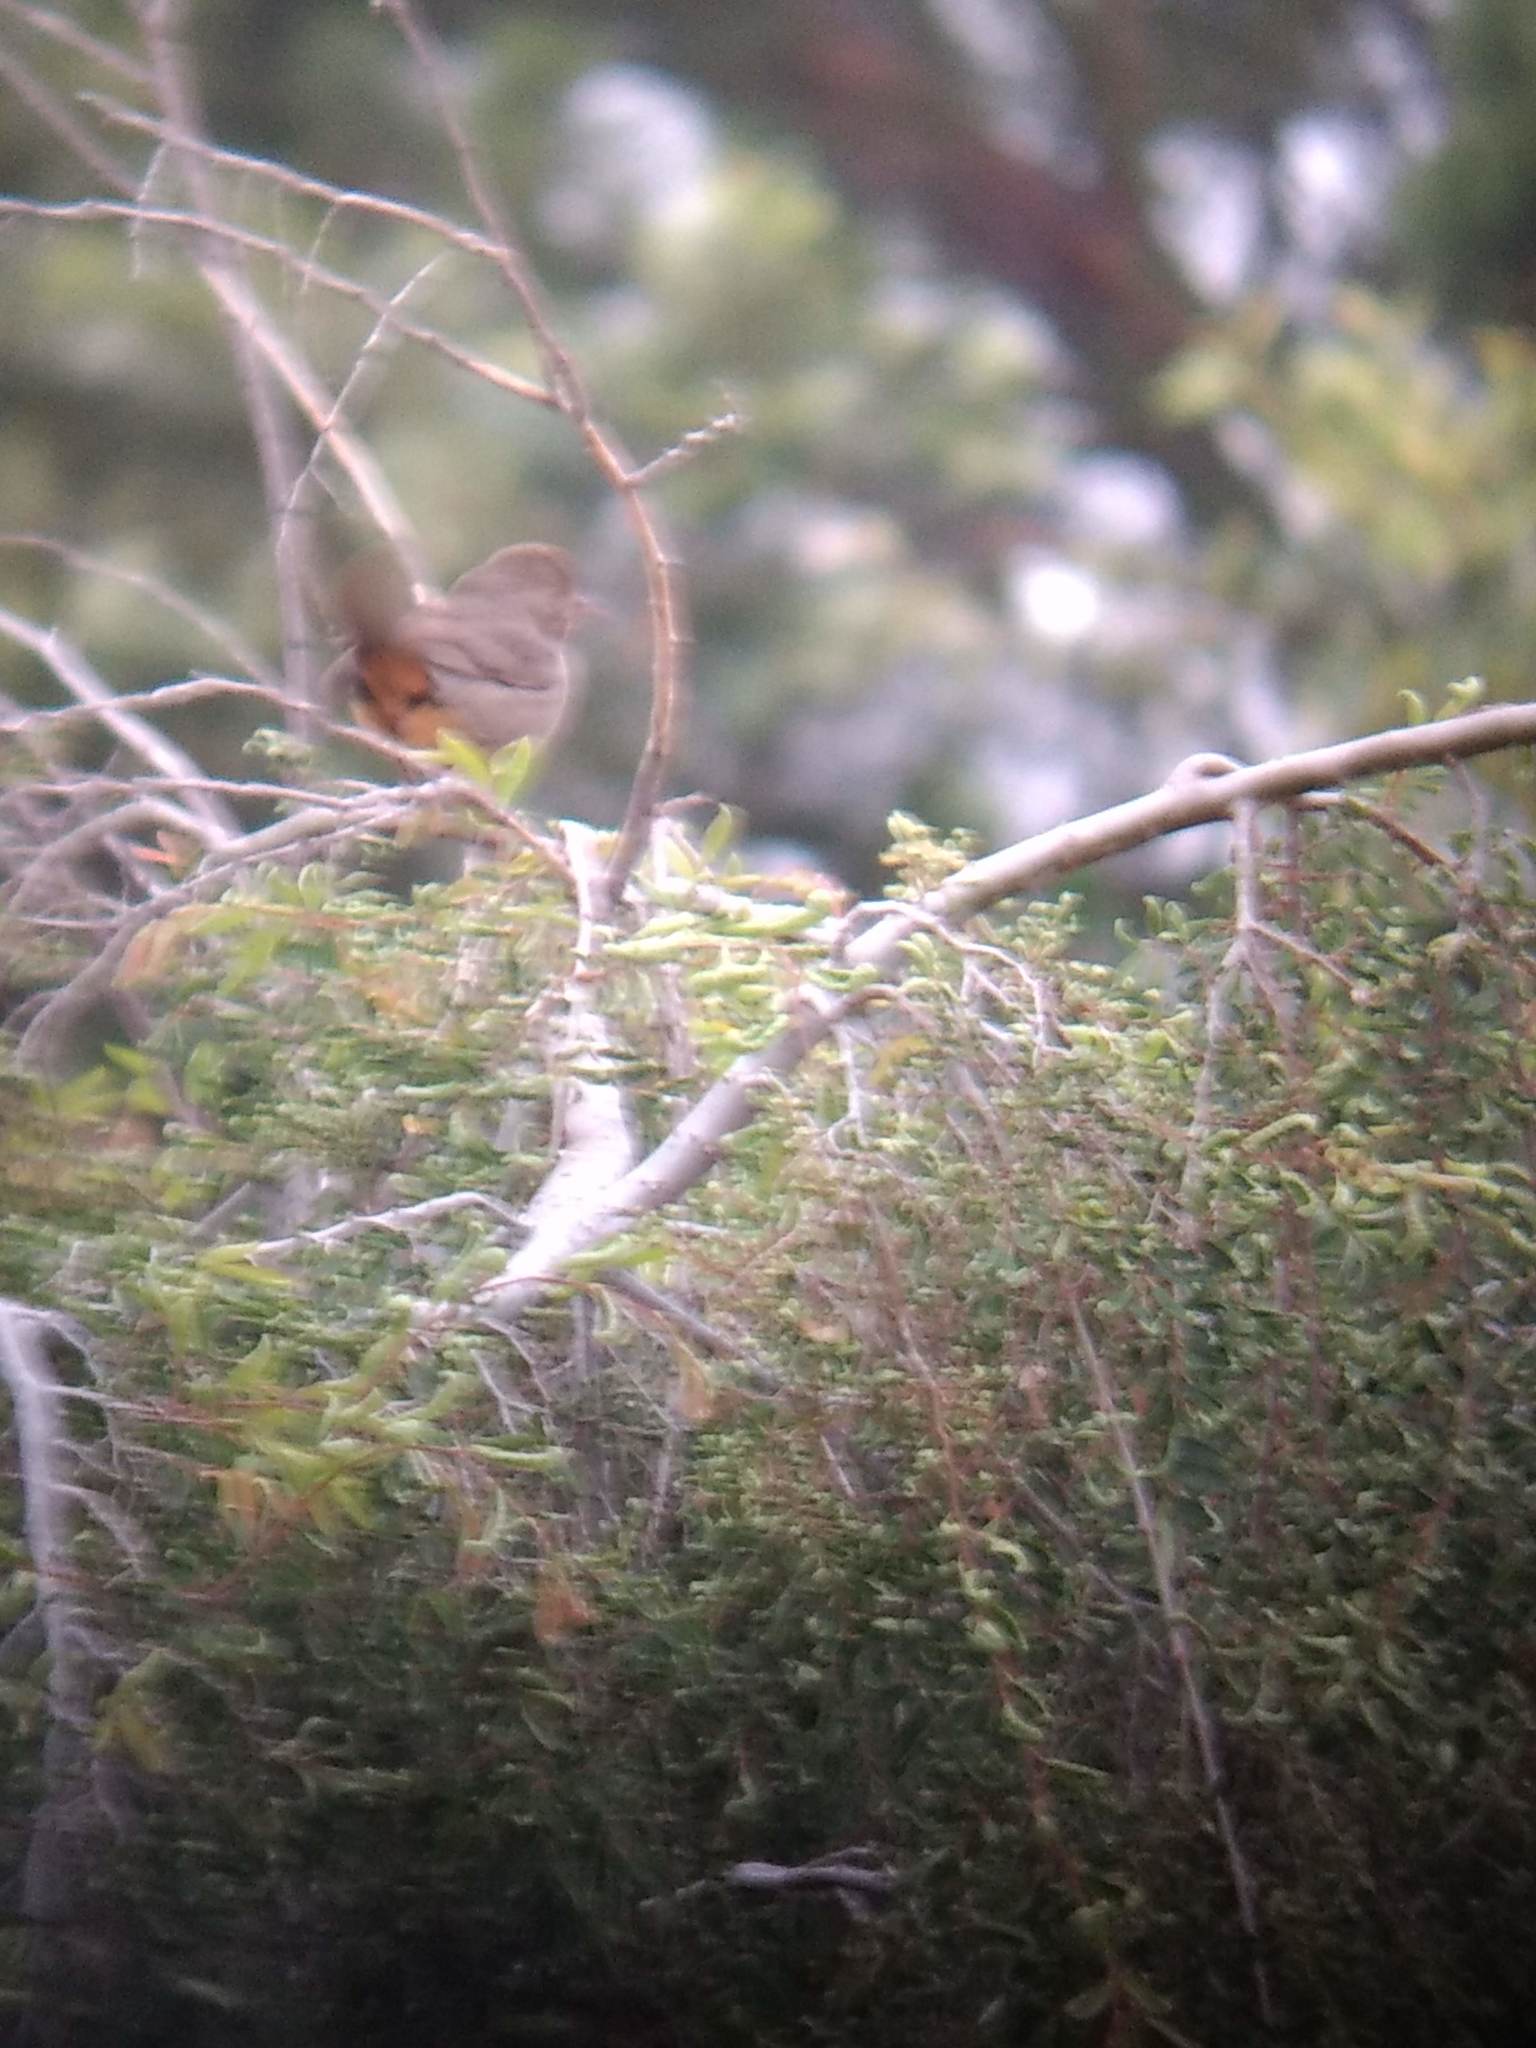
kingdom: Animalia
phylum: Chordata
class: Aves
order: Passeriformes
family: Passerellidae
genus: Melozone
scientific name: Melozone crissalis
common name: California towhee
